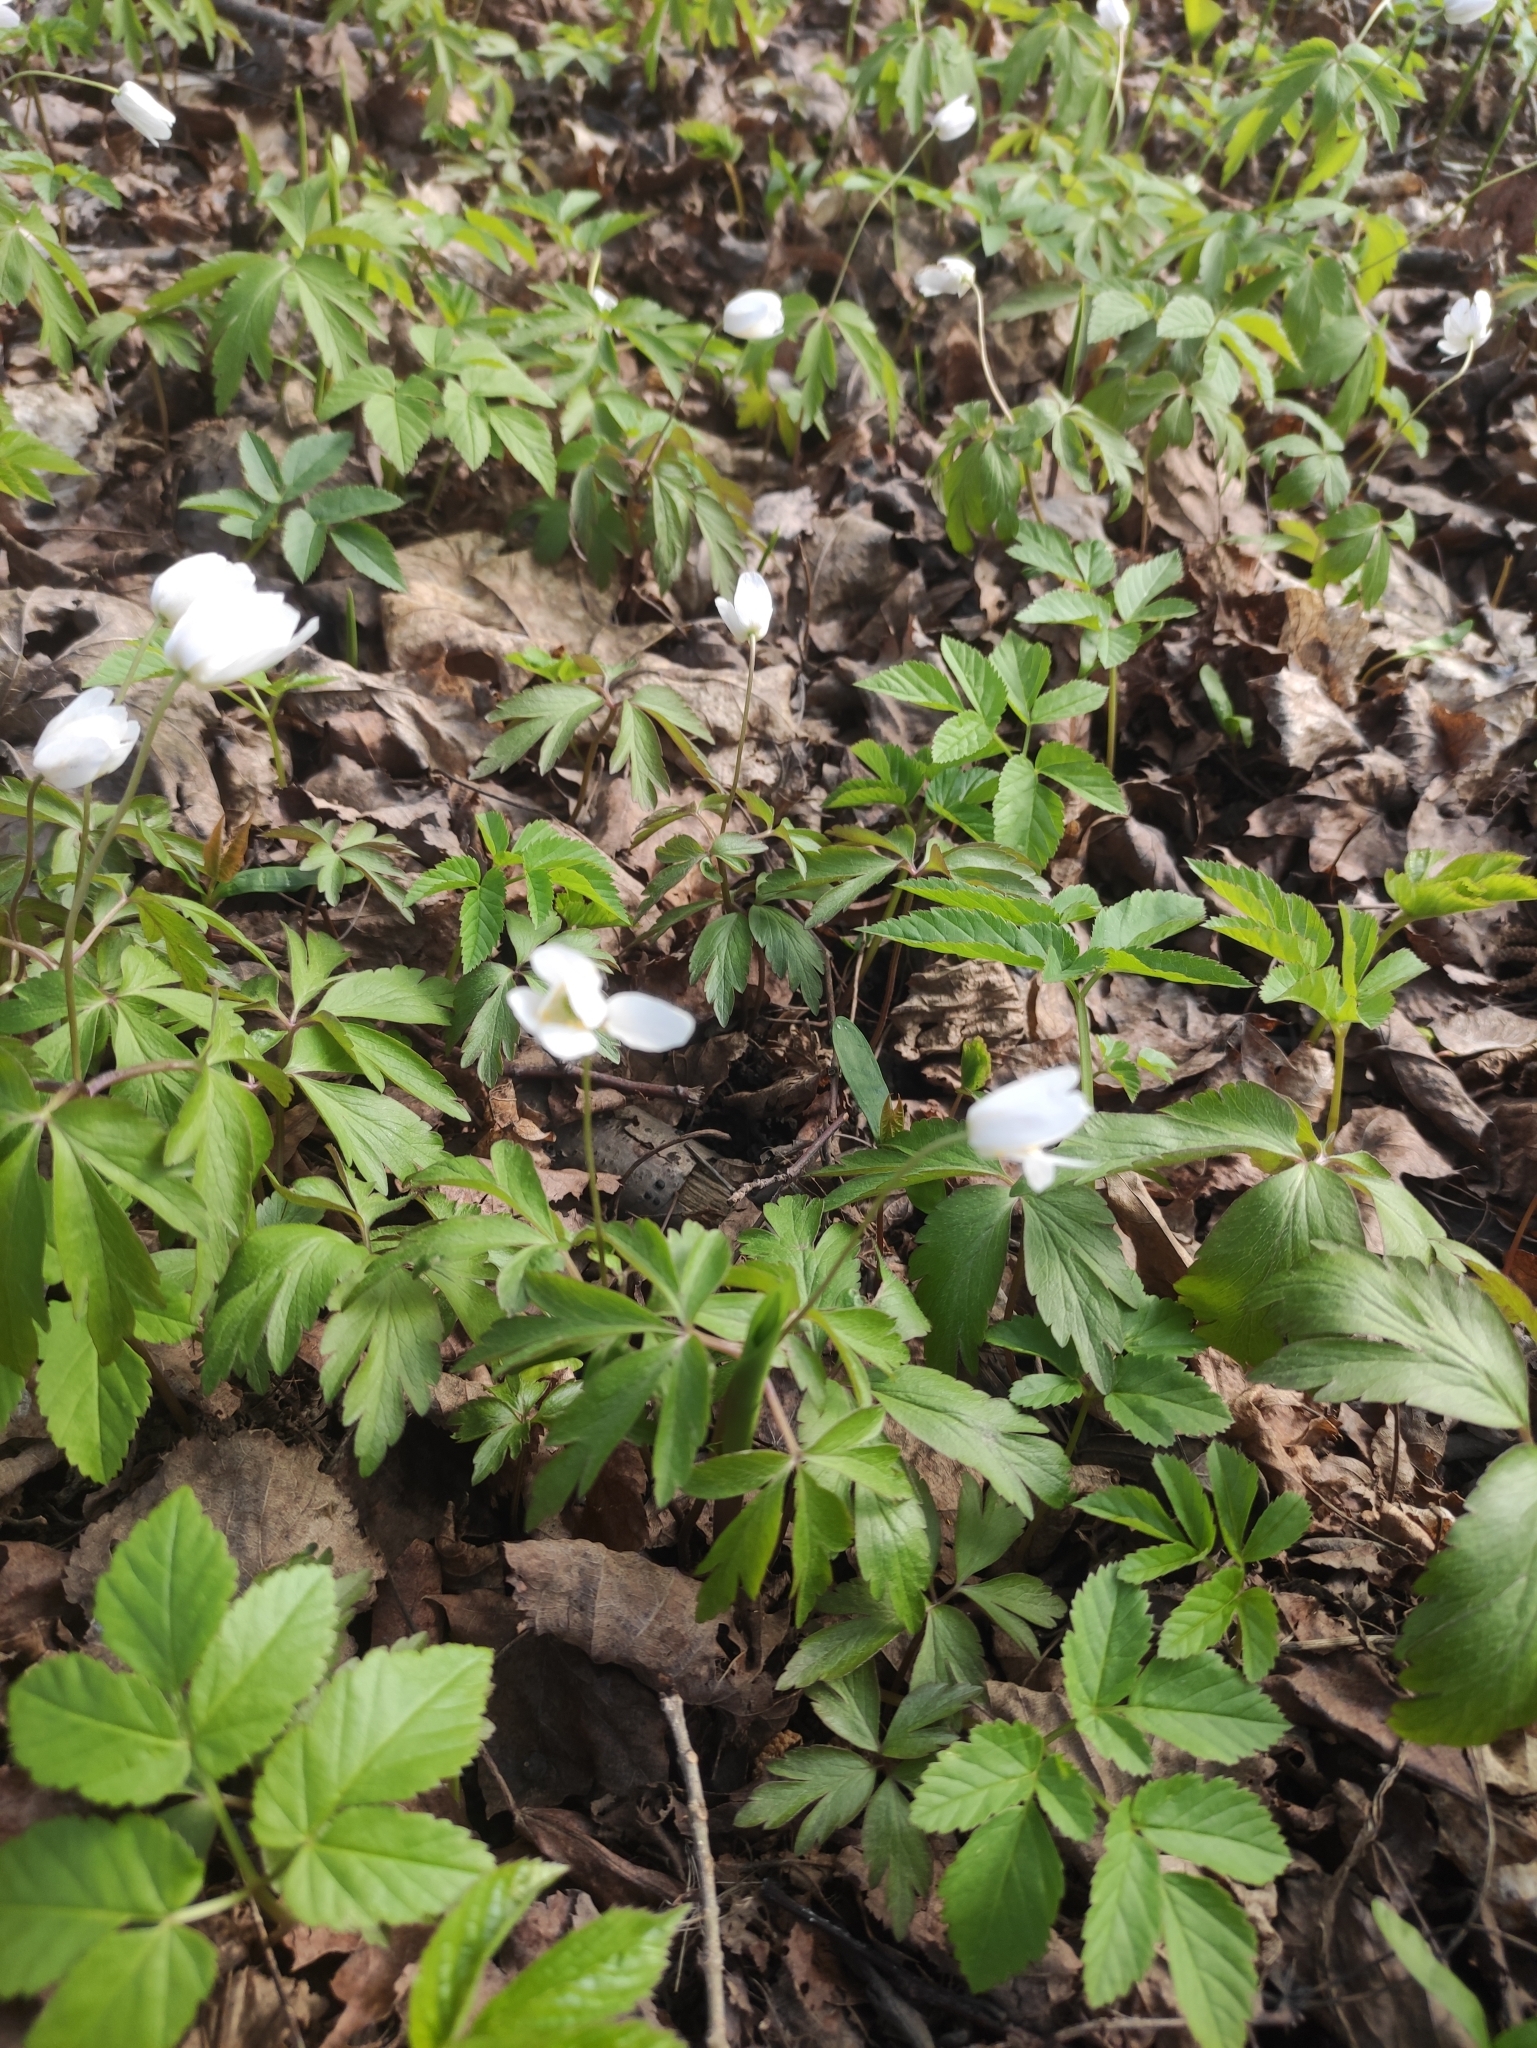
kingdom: Plantae
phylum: Tracheophyta
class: Magnoliopsida
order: Ranunculales
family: Ranunculaceae
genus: Anemone
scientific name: Anemone nemorosa
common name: Wood anemone
